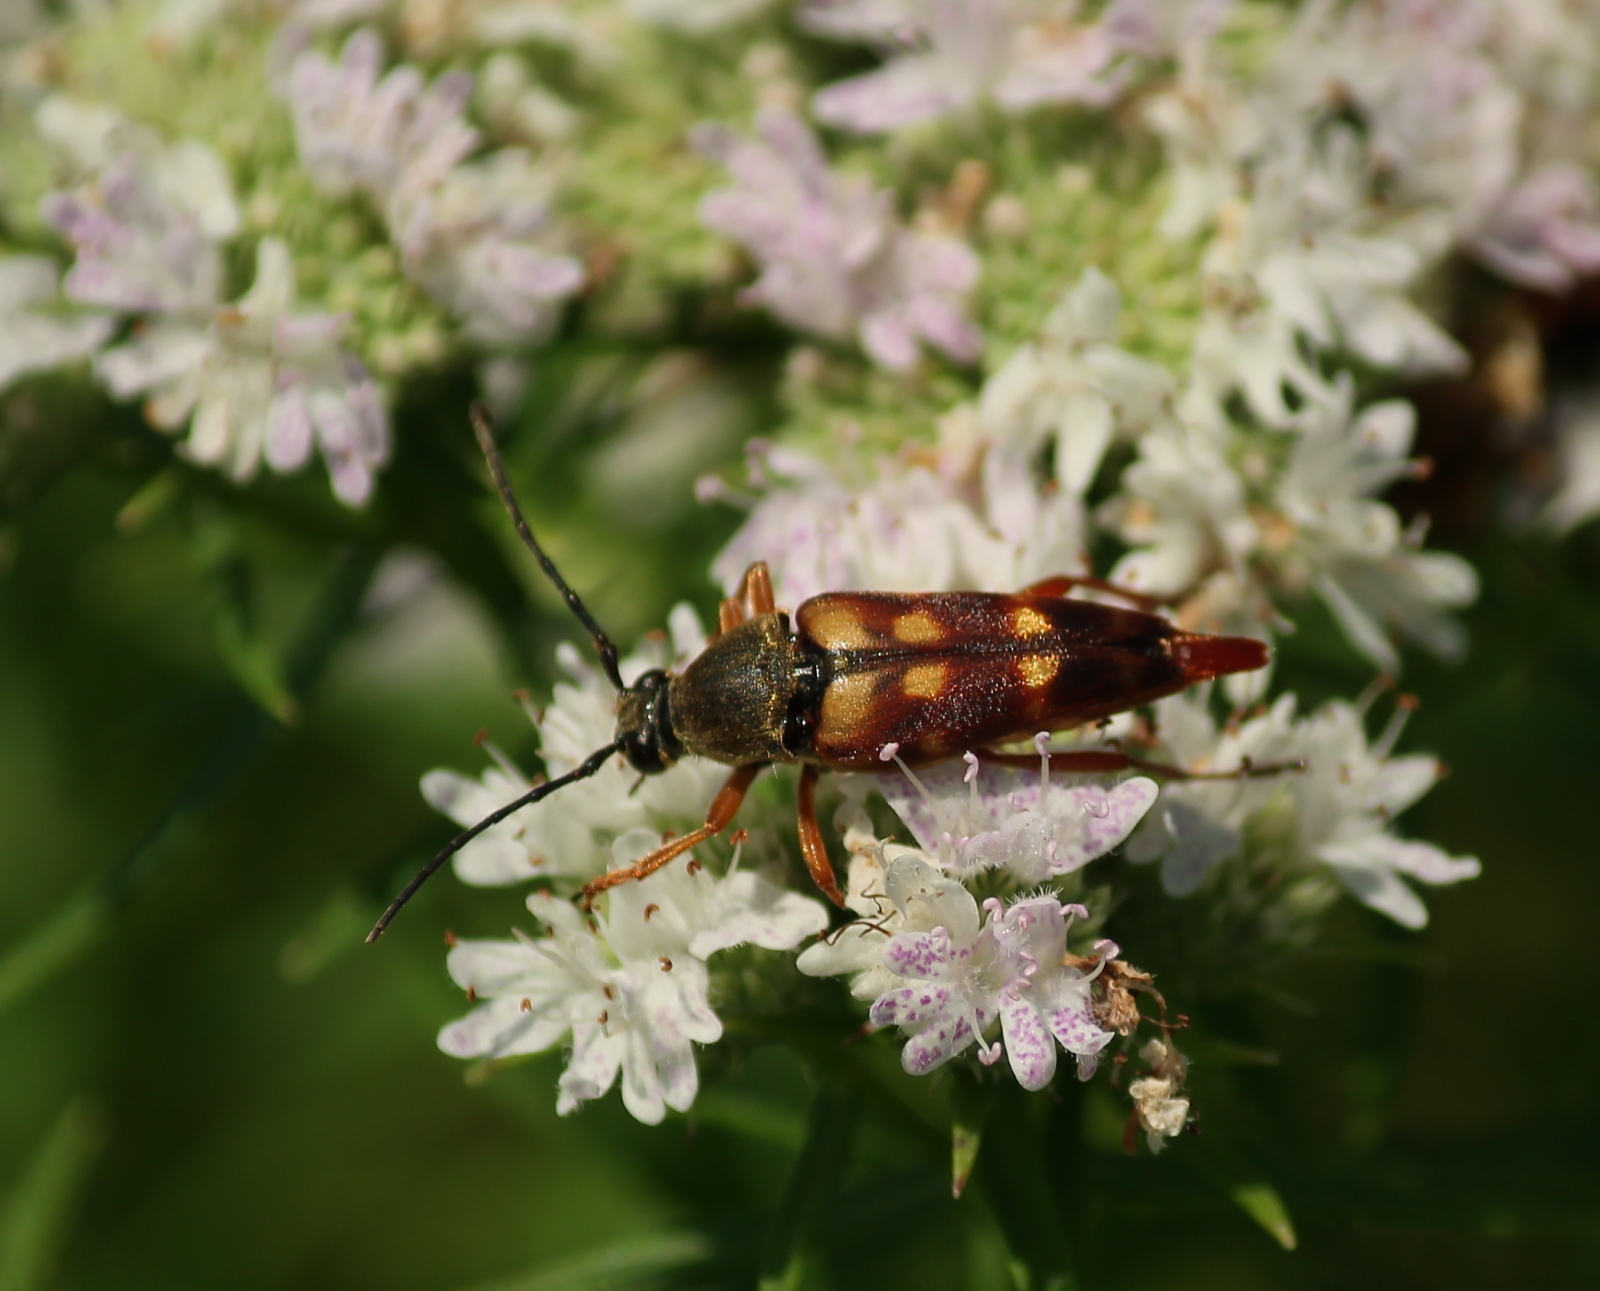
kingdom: Animalia
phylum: Arthropoda
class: Insecta
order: Coleoptera
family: Cerambycidae
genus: Typocerus
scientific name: Typocerus velutinus
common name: Banded longhorn beetle
